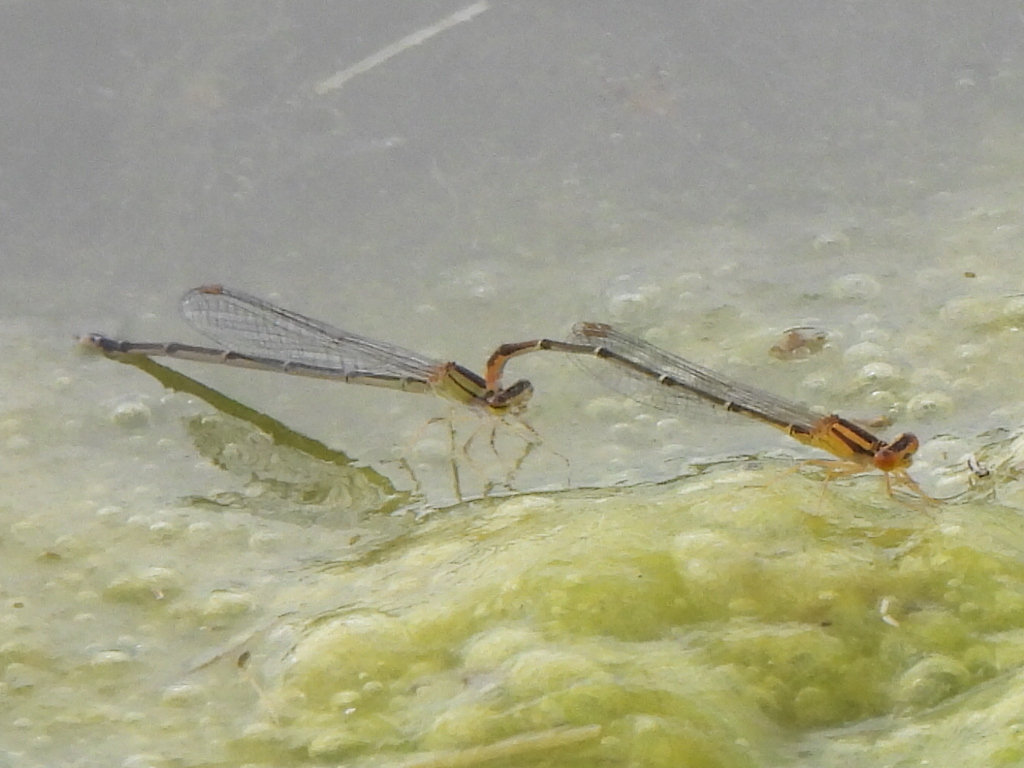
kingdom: Animalia
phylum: Arthropoda
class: Insecta
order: Odonata
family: Coenagrionidae
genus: Enallagma
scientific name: Enallagma signatum
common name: Orange bluet
